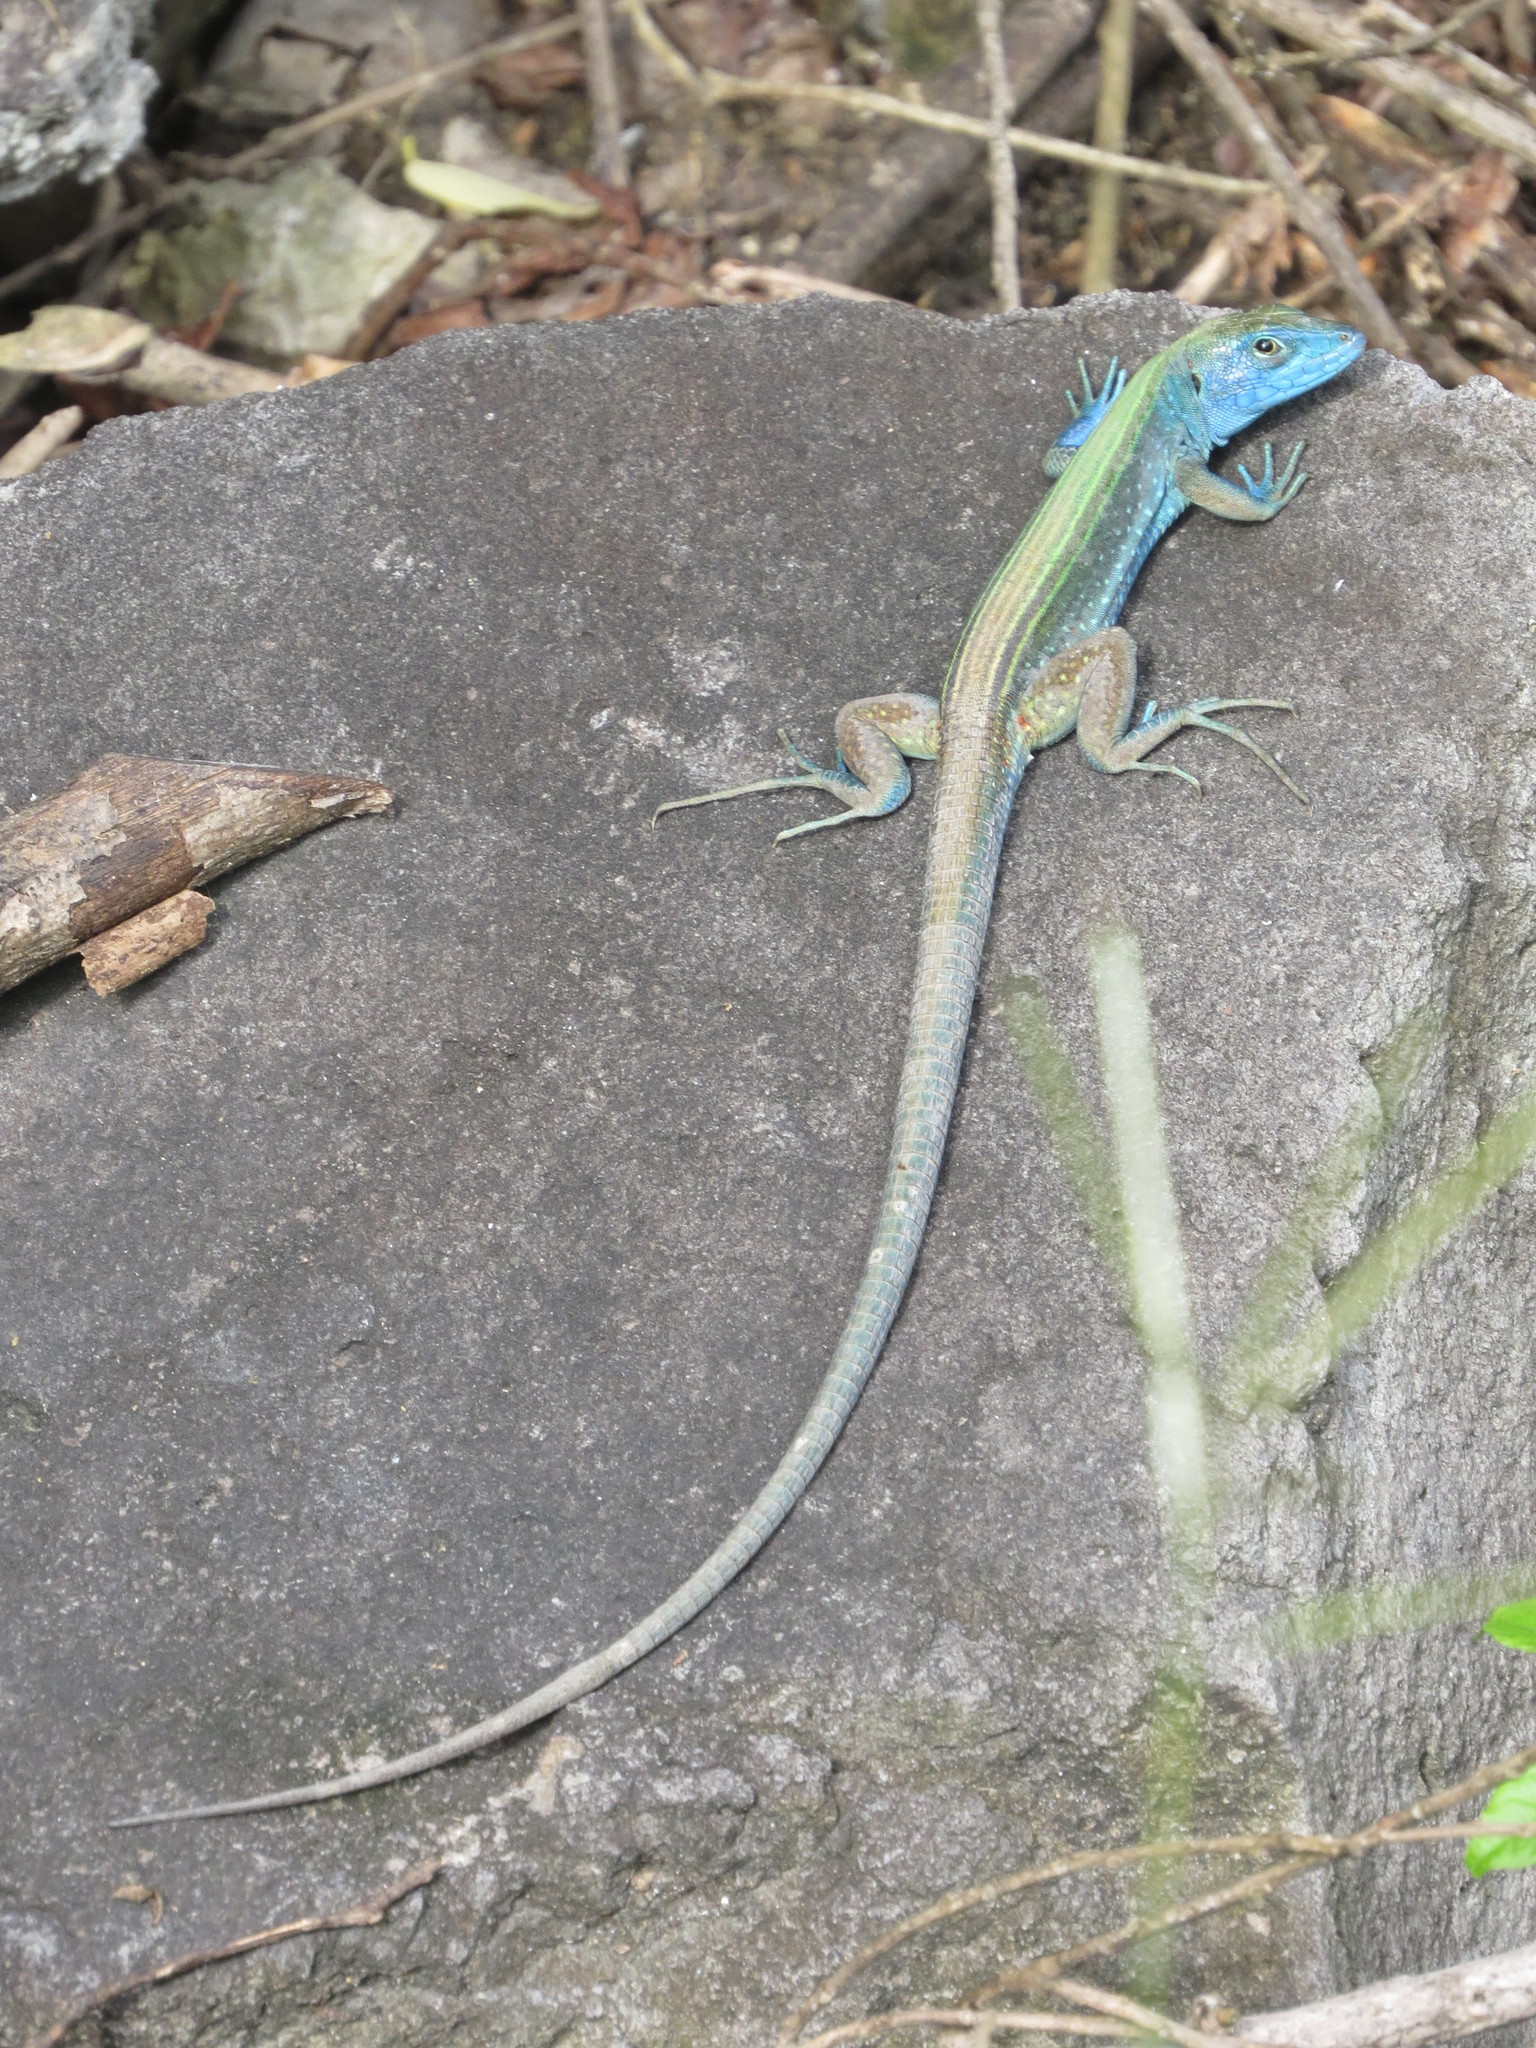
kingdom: Animalia
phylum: Chordata
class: Squamata
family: Teiidae
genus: Cnemidophorus
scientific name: Cnemidophorus espeuti
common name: Rainbow lizard
